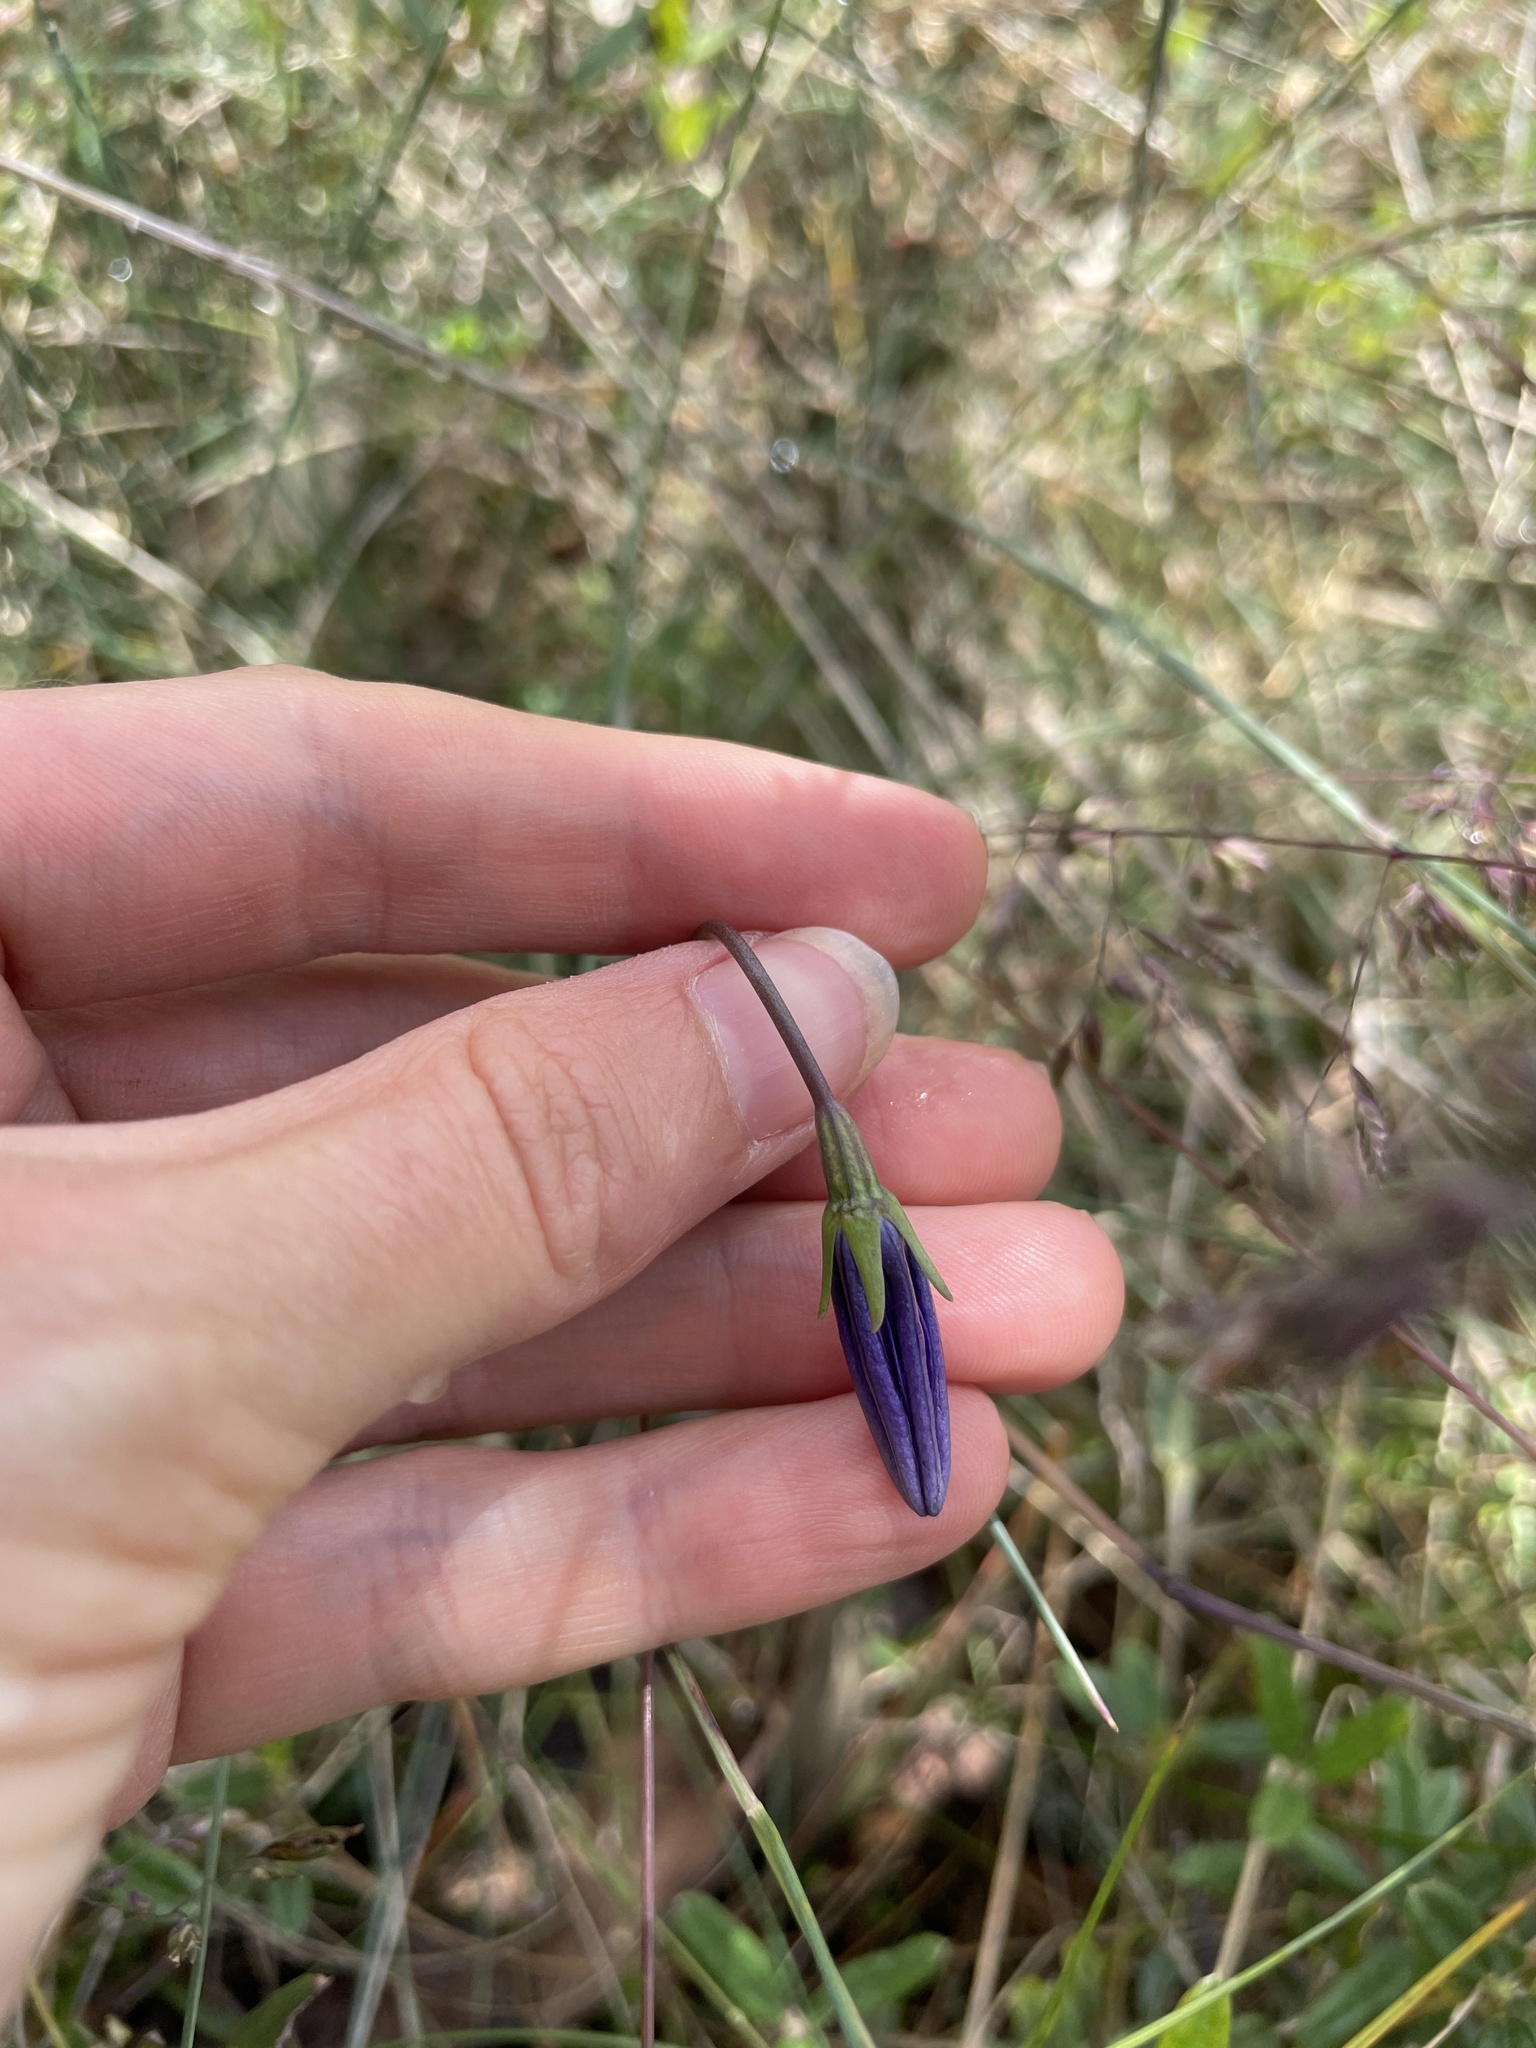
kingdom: Plantae
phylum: Tracheophyta
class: Magnoliopsida
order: Asterales
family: Campanulaceae
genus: Wahlenbergia
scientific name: Wahlenbergia
